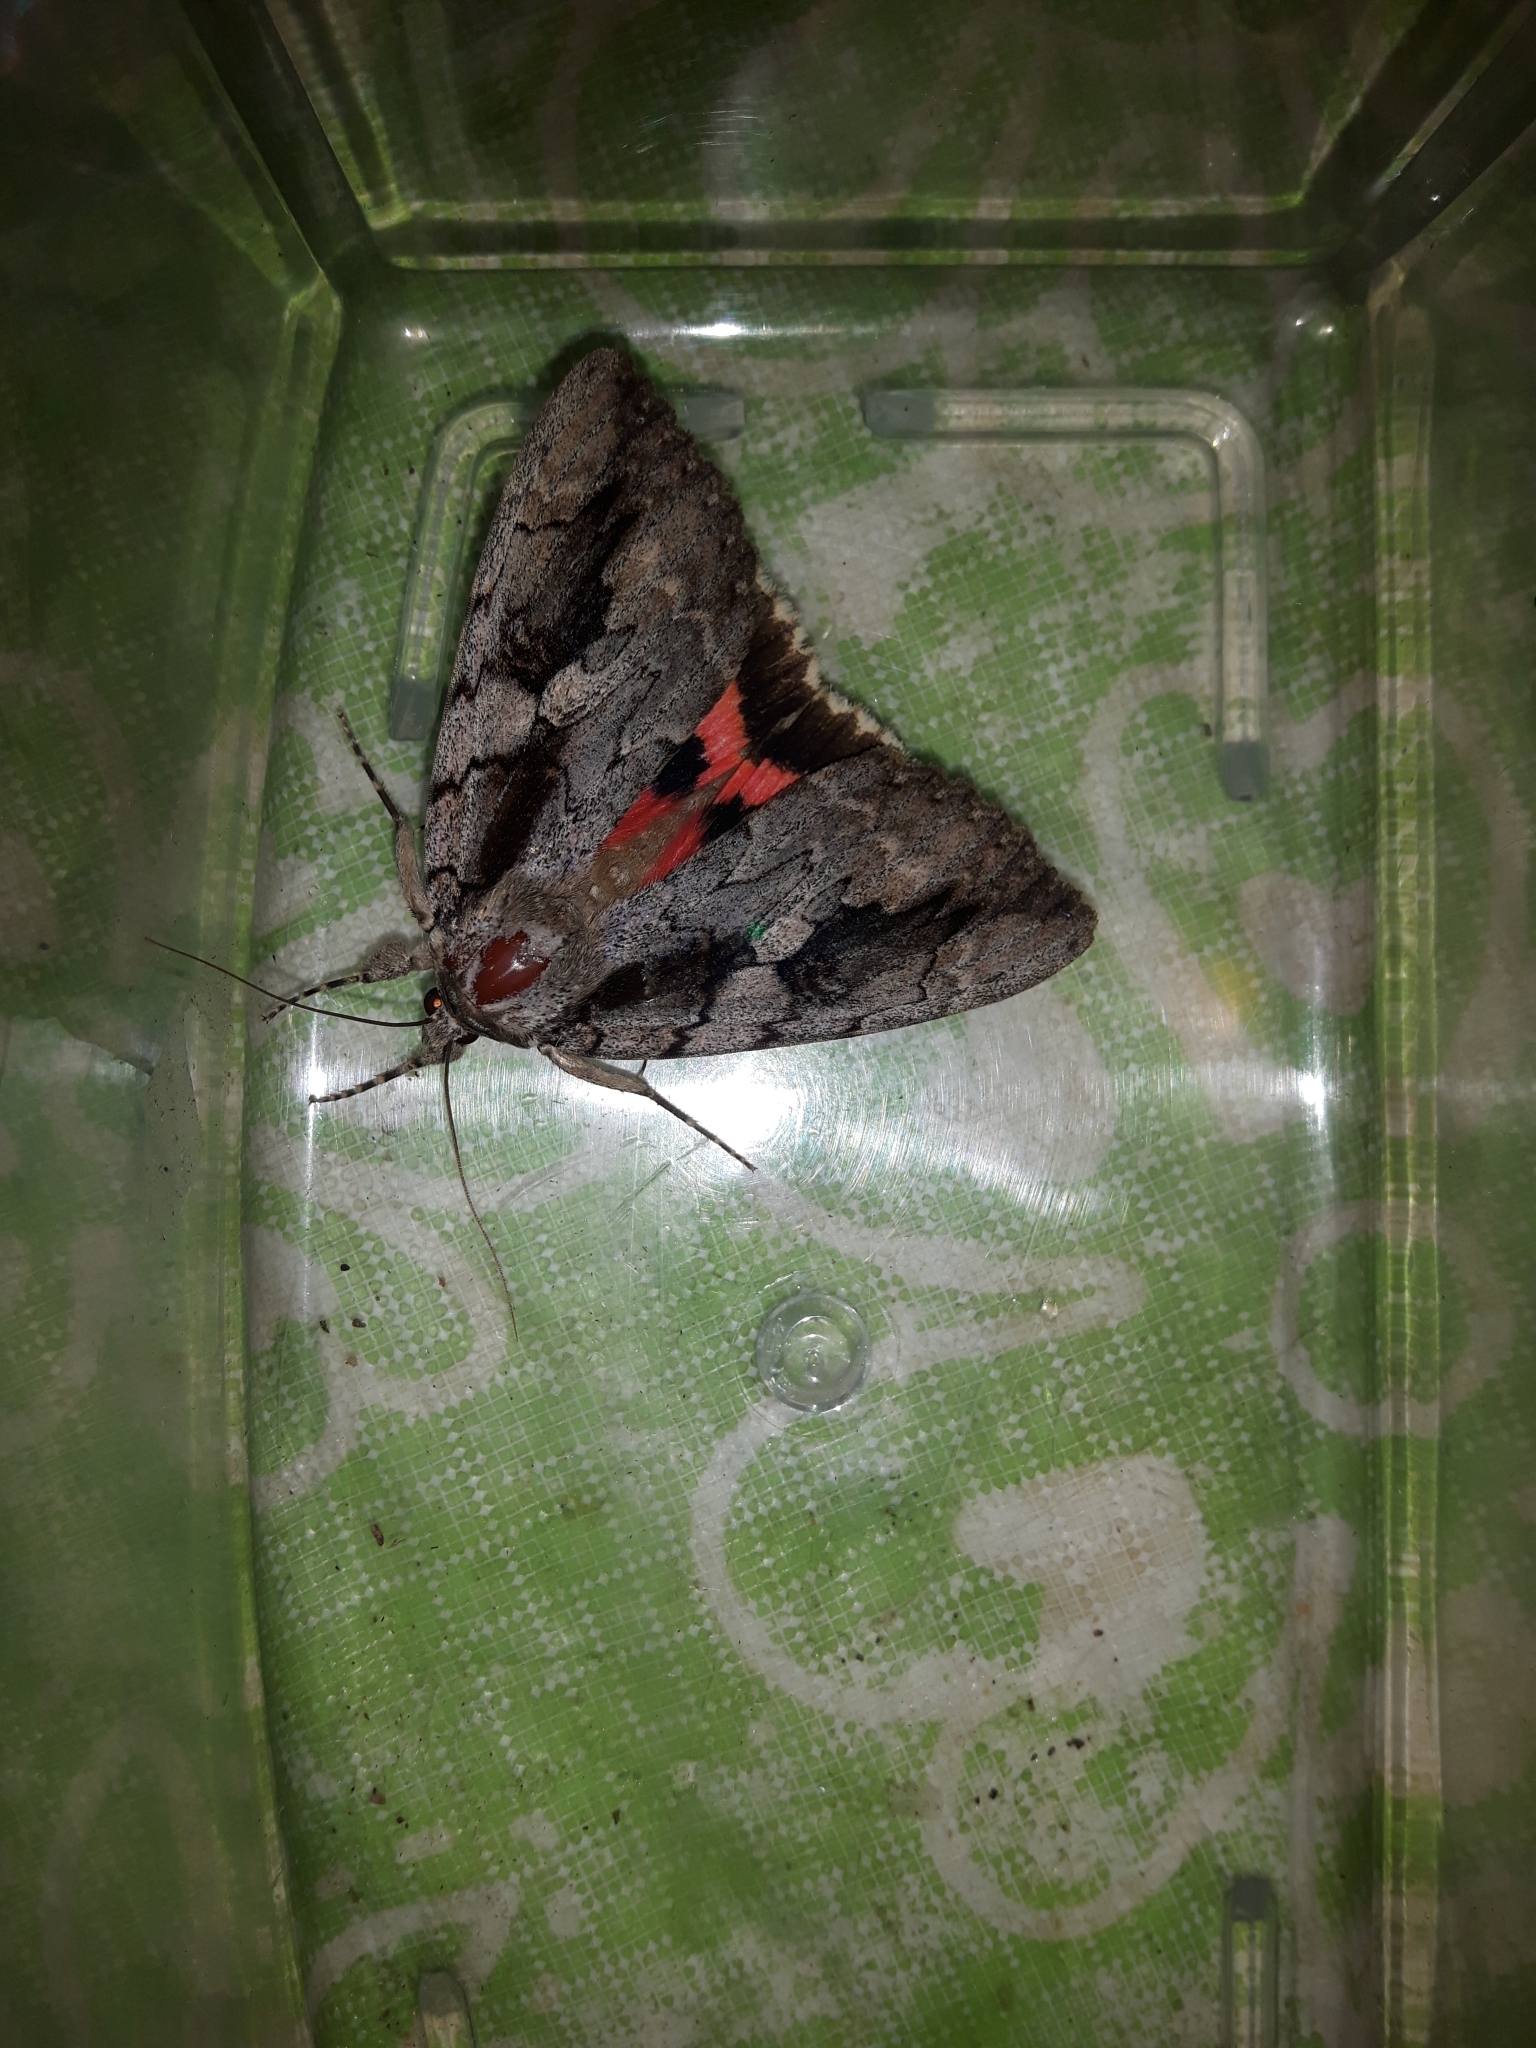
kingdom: Animalia
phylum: Arthropoda
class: Insecta
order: Lepidoptera
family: Erebidae
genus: Catocala
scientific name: Catocala amatrix
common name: Sweetheart underwing
